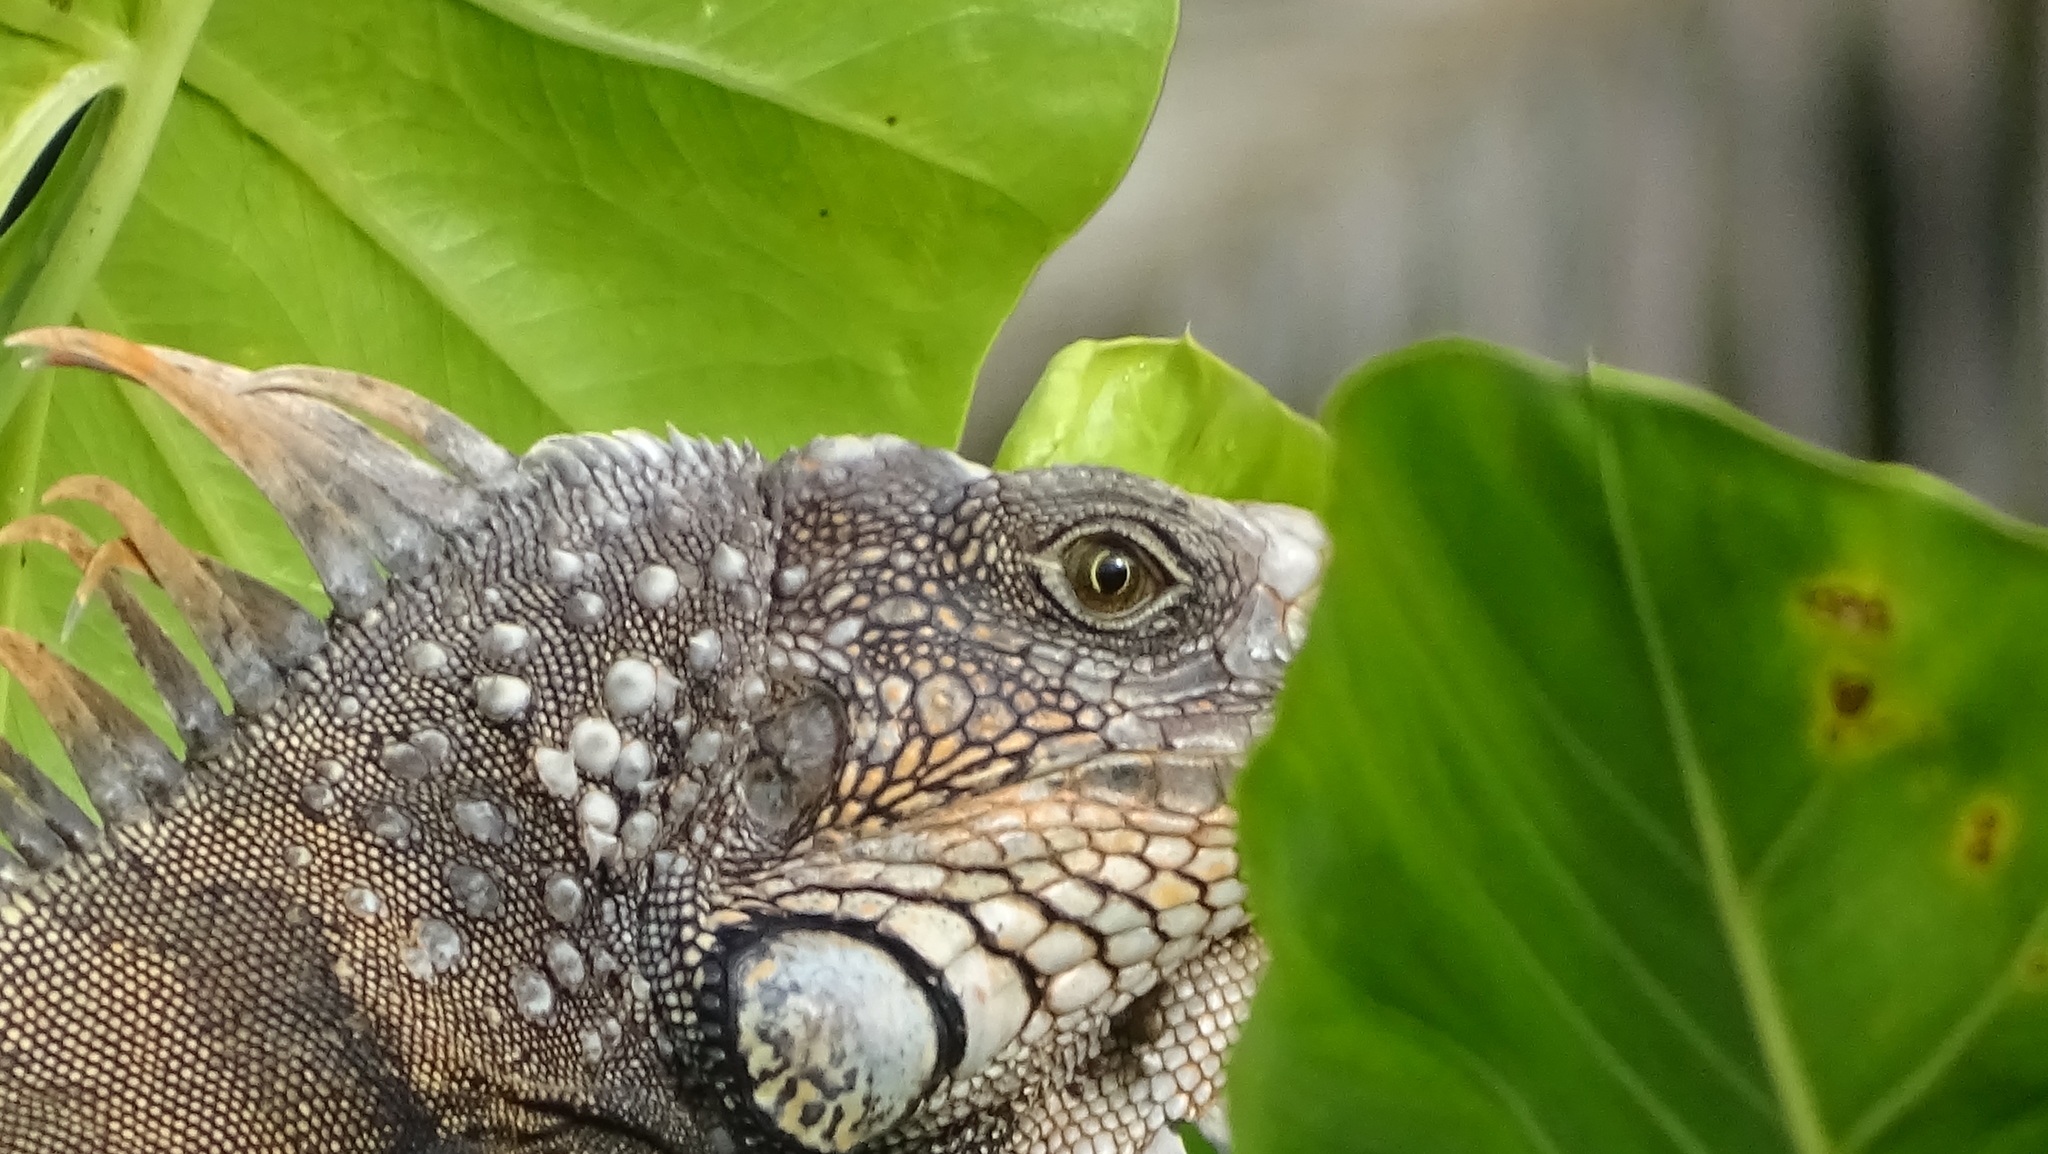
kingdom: Animalia
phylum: Chordata
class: Squamata
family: Iguanidae
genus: Iguana
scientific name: Iguana iguana
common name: Green iguana
